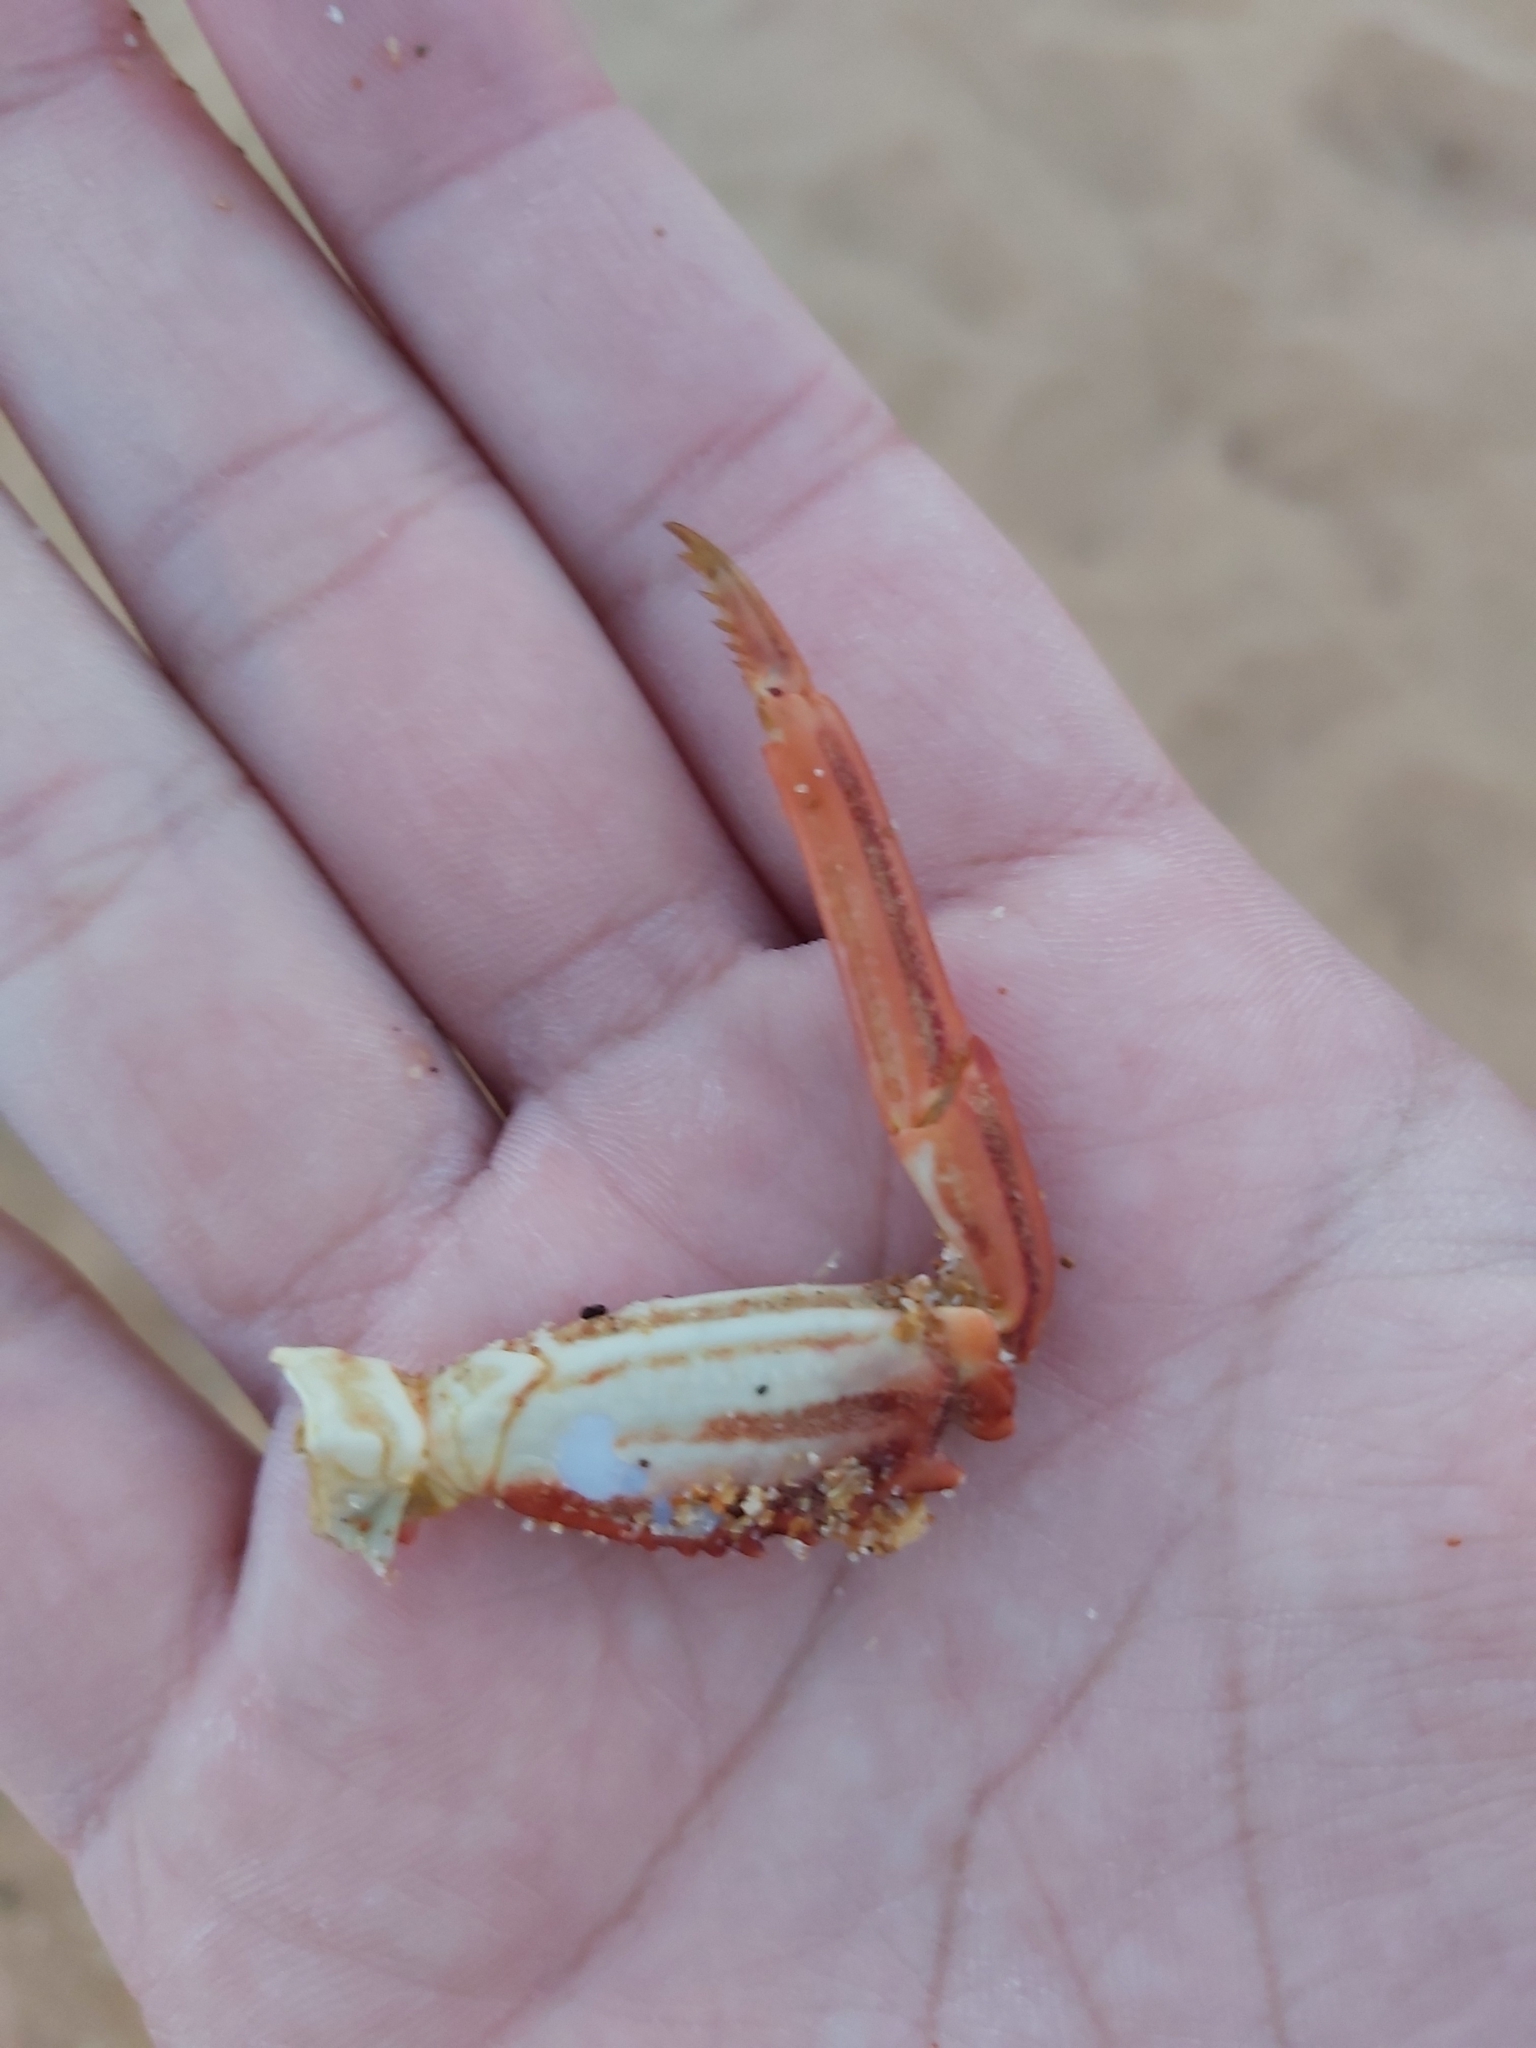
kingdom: Animalia
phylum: Arthropoda
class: Malacostraca
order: Decapoda
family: Plagusiidae
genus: Guinusia
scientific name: Guinusia chabrus
